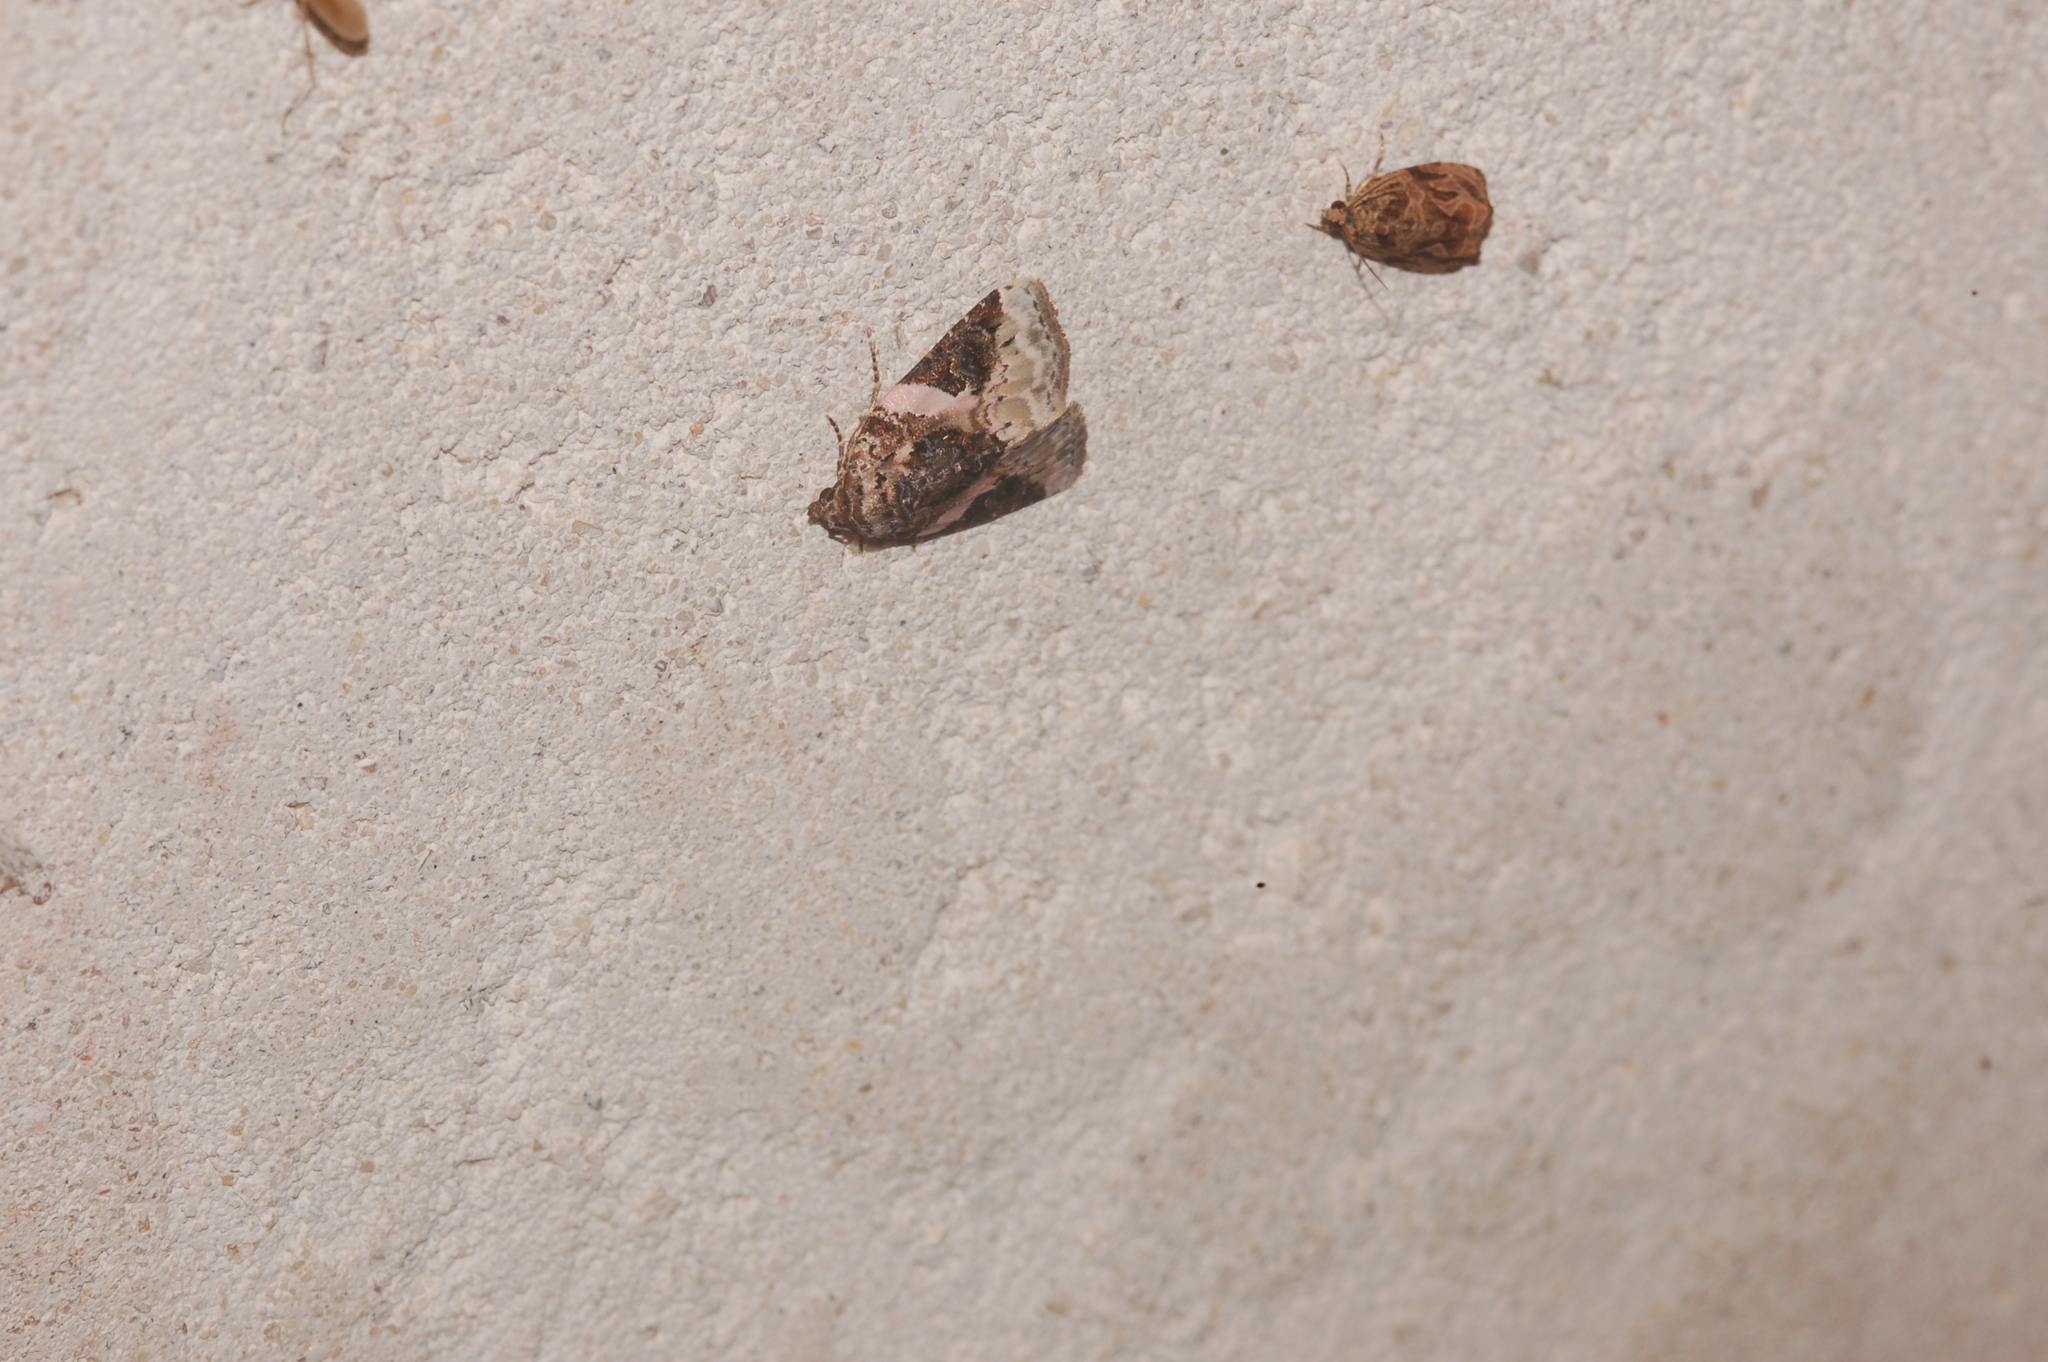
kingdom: Animalia
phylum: Arthropoda
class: Insecta
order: Lepidoptera
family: Noctuidae
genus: Pseudeustrotia
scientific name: Pseudeustrotia carneola
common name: Pink-barred lithacodia moth
